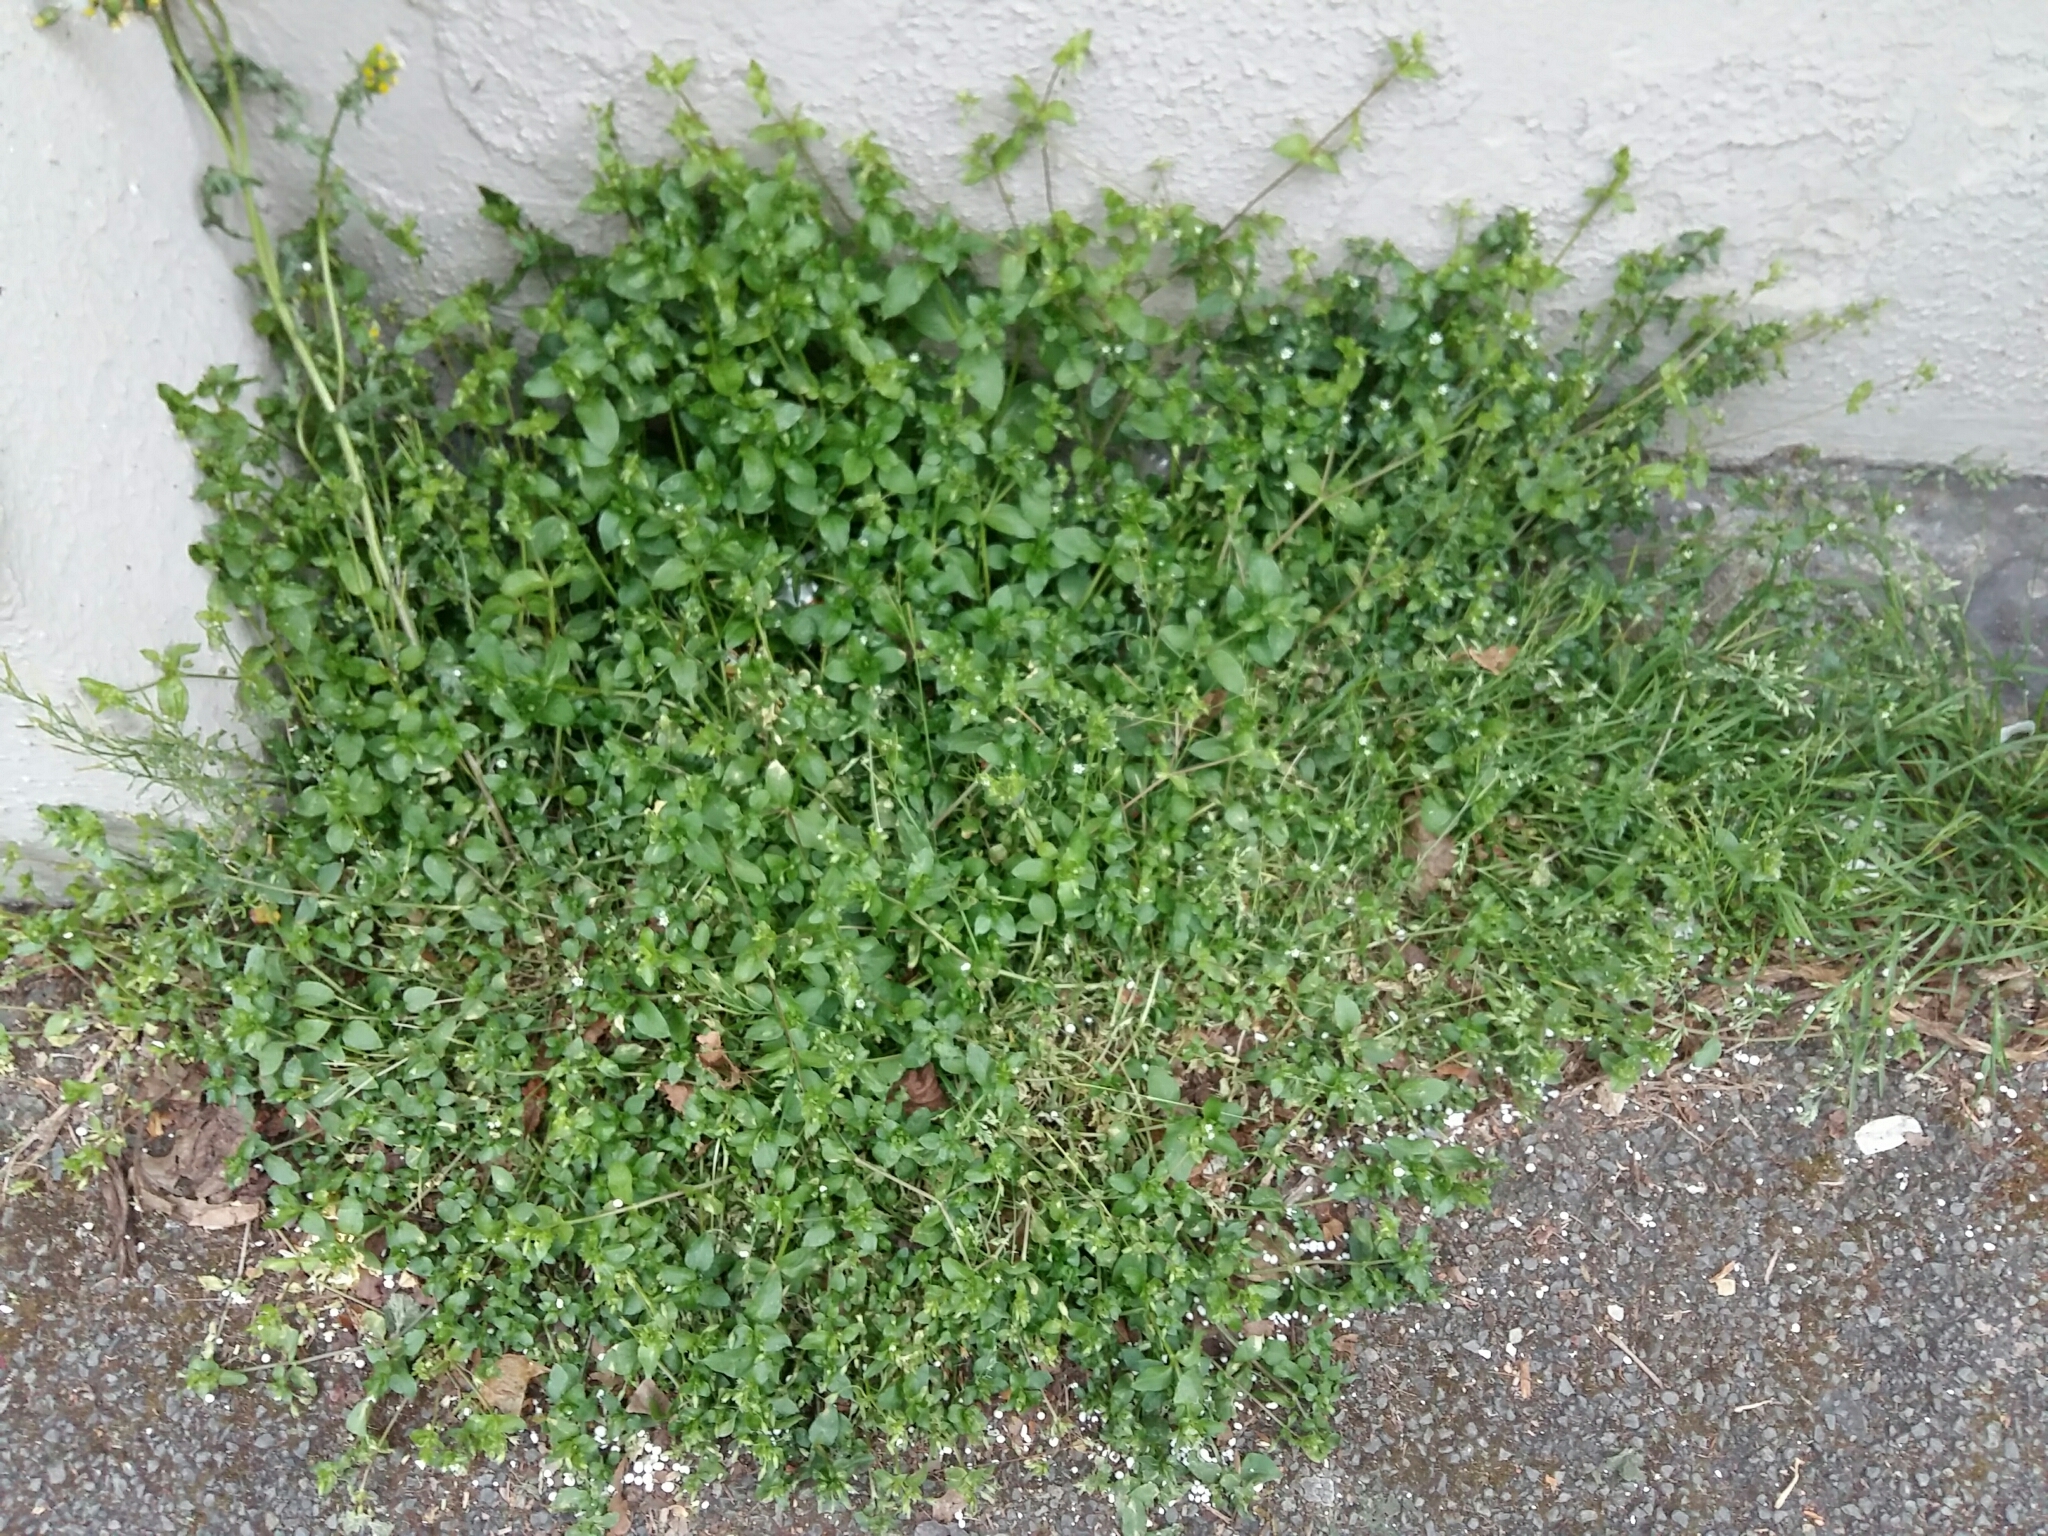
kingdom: Plantae
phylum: Tracheophyta
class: Magnoliopsida
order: Caryophyllales
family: Caryophyllaceae
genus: Stellaria
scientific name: Stellaria media
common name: Common chickweed
